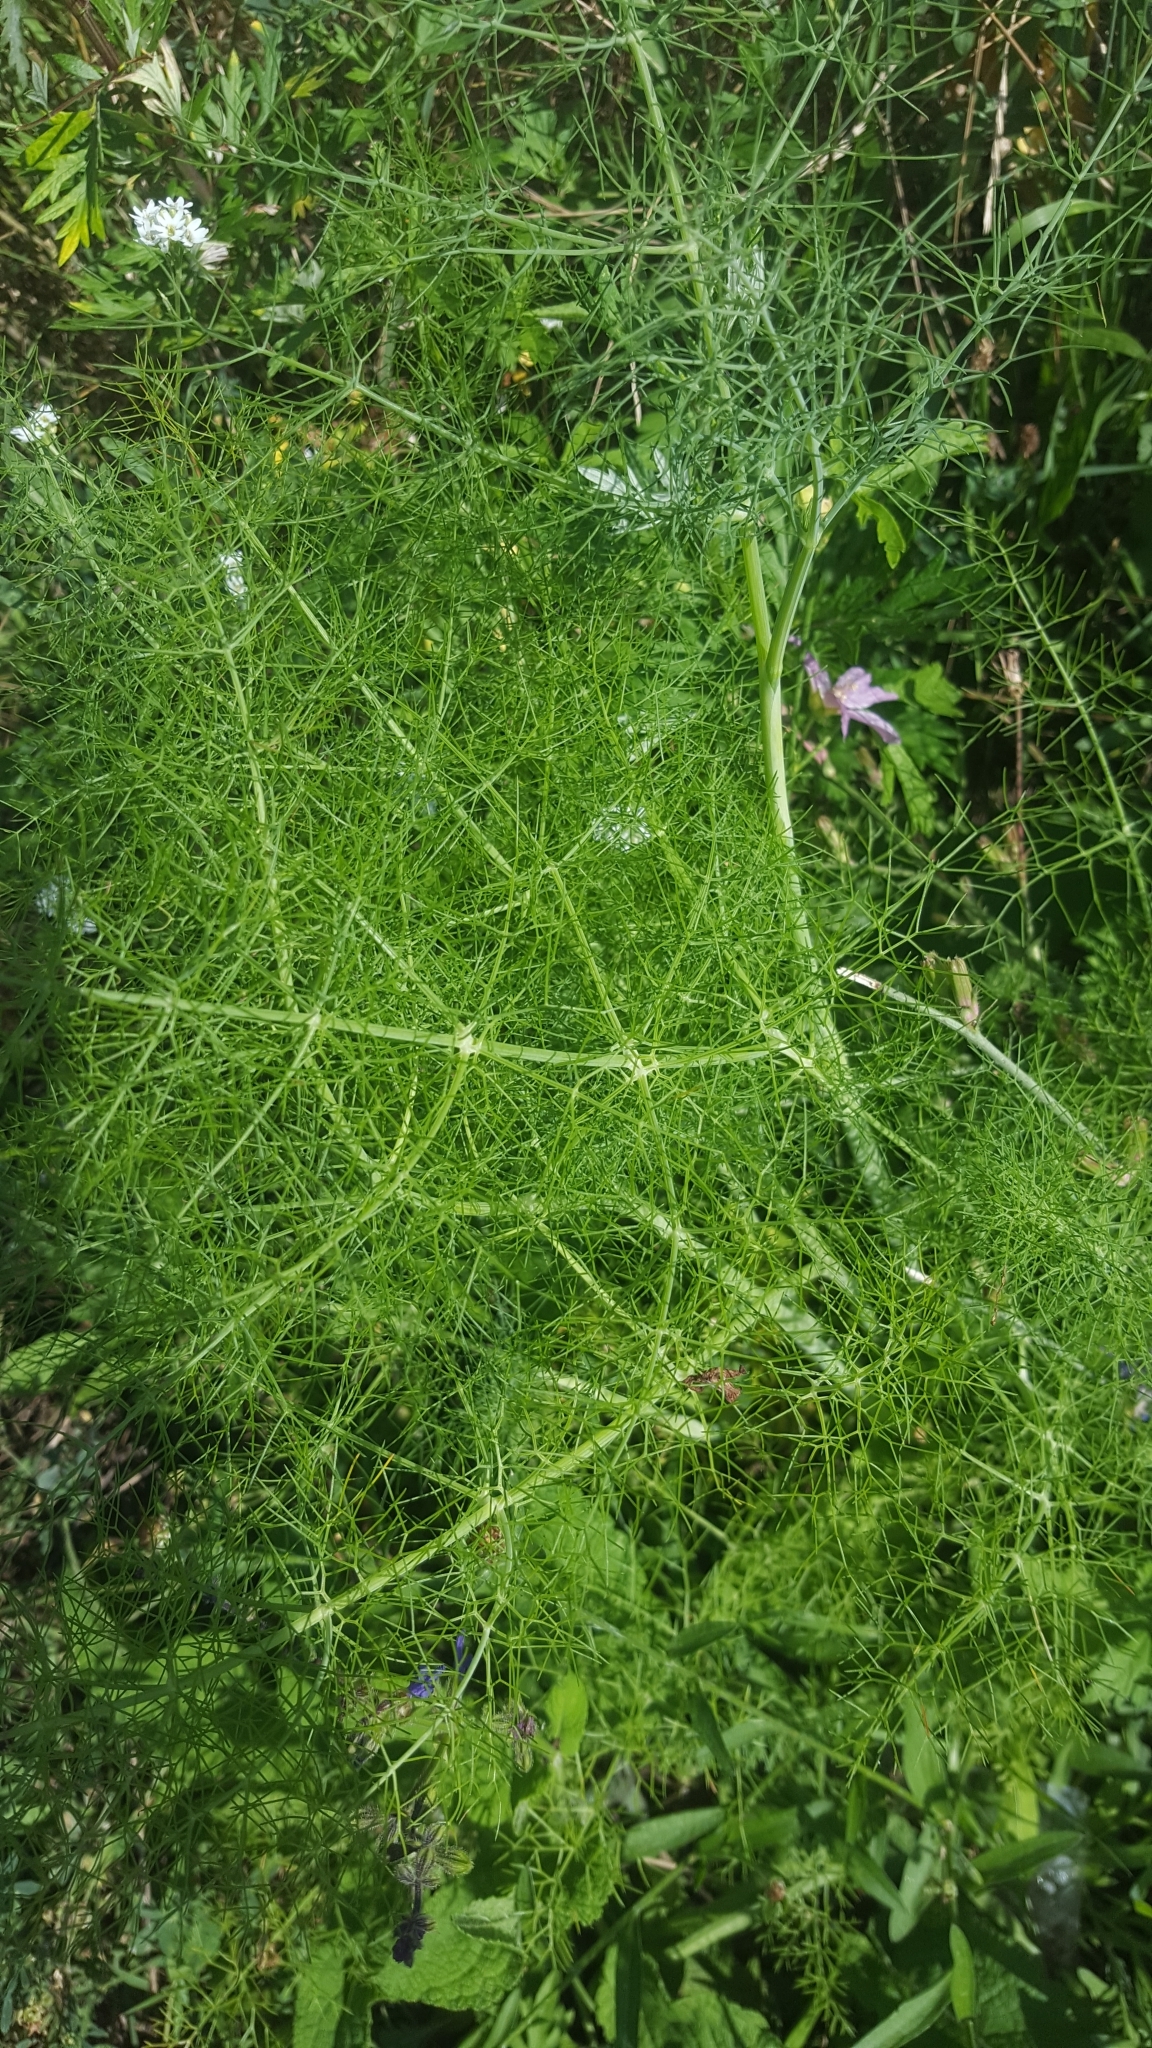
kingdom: Plantae
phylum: Tracheophyta
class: Magnoliopsida
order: Apiales
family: Apiaceae
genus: Foeniculum
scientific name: Foeniculum vulgare
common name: Fennel
